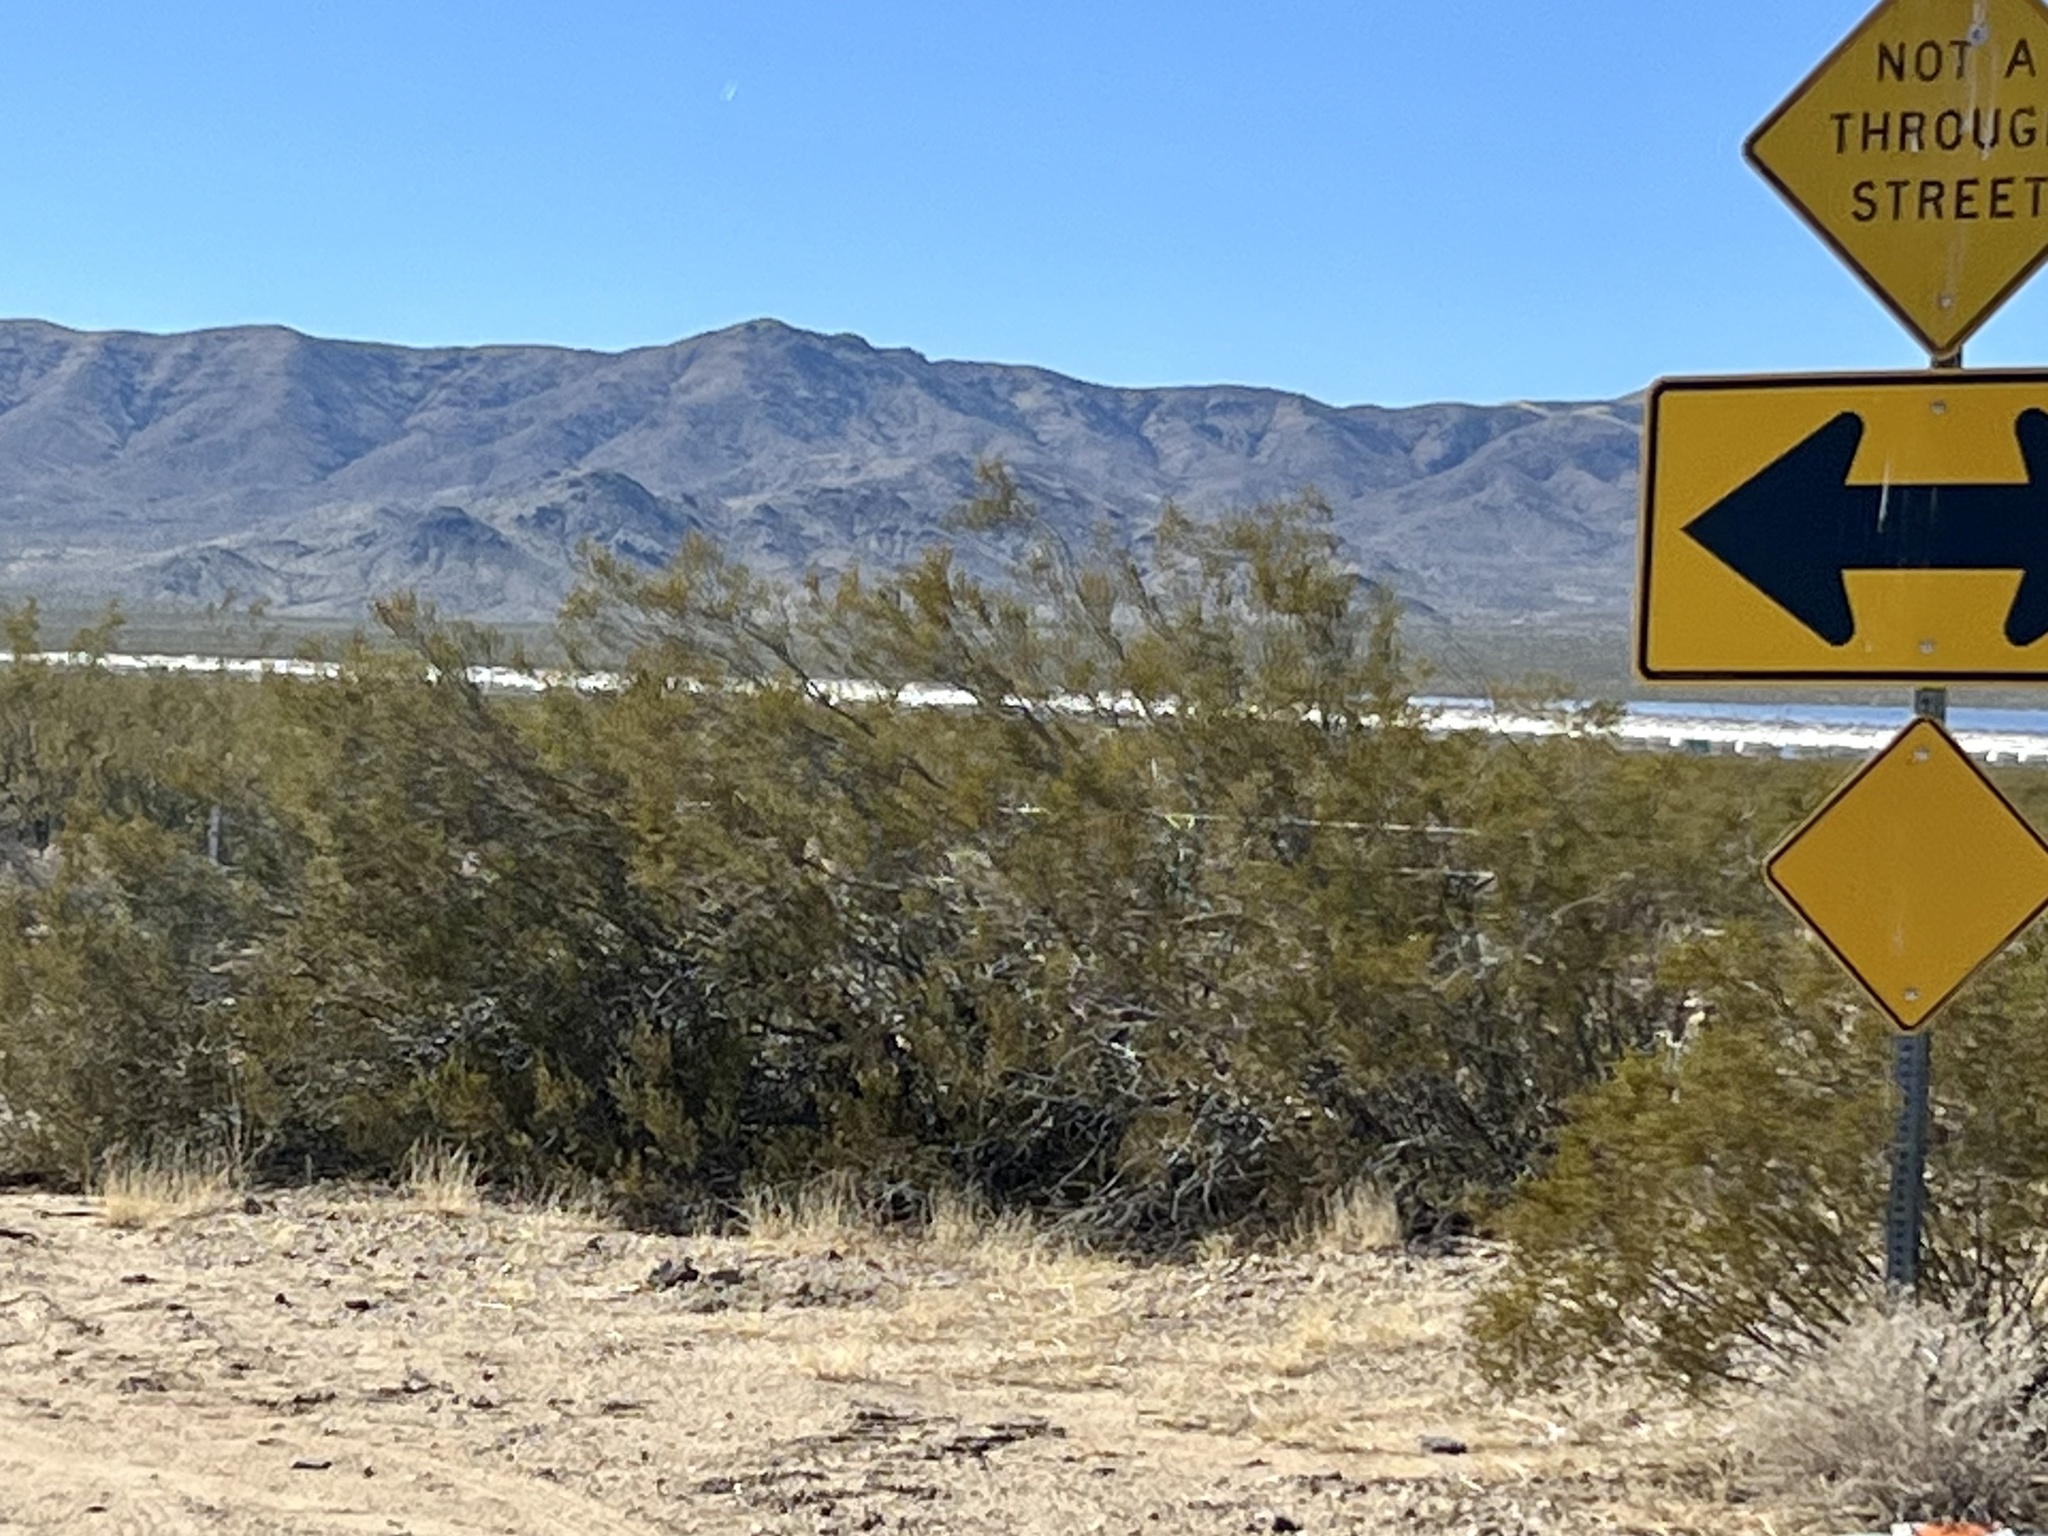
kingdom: Plantae
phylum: Tracheophyta
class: Magnoliopsida
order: Zygophyllales
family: Zygophyllaceae
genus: Larrea
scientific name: Larrea tridentata
